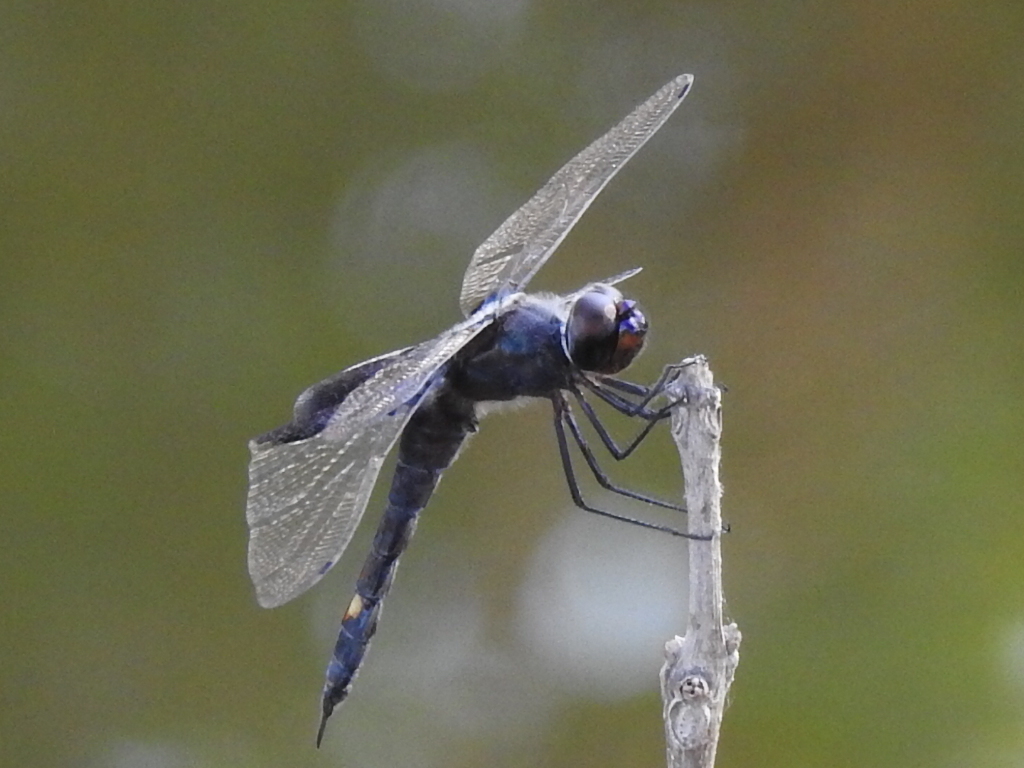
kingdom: Animalia
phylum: Arthropoda
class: Insecta
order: Odonata
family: Libellulidae
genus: Tramea
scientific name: Tramea lacerata
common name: Black saddlebags
